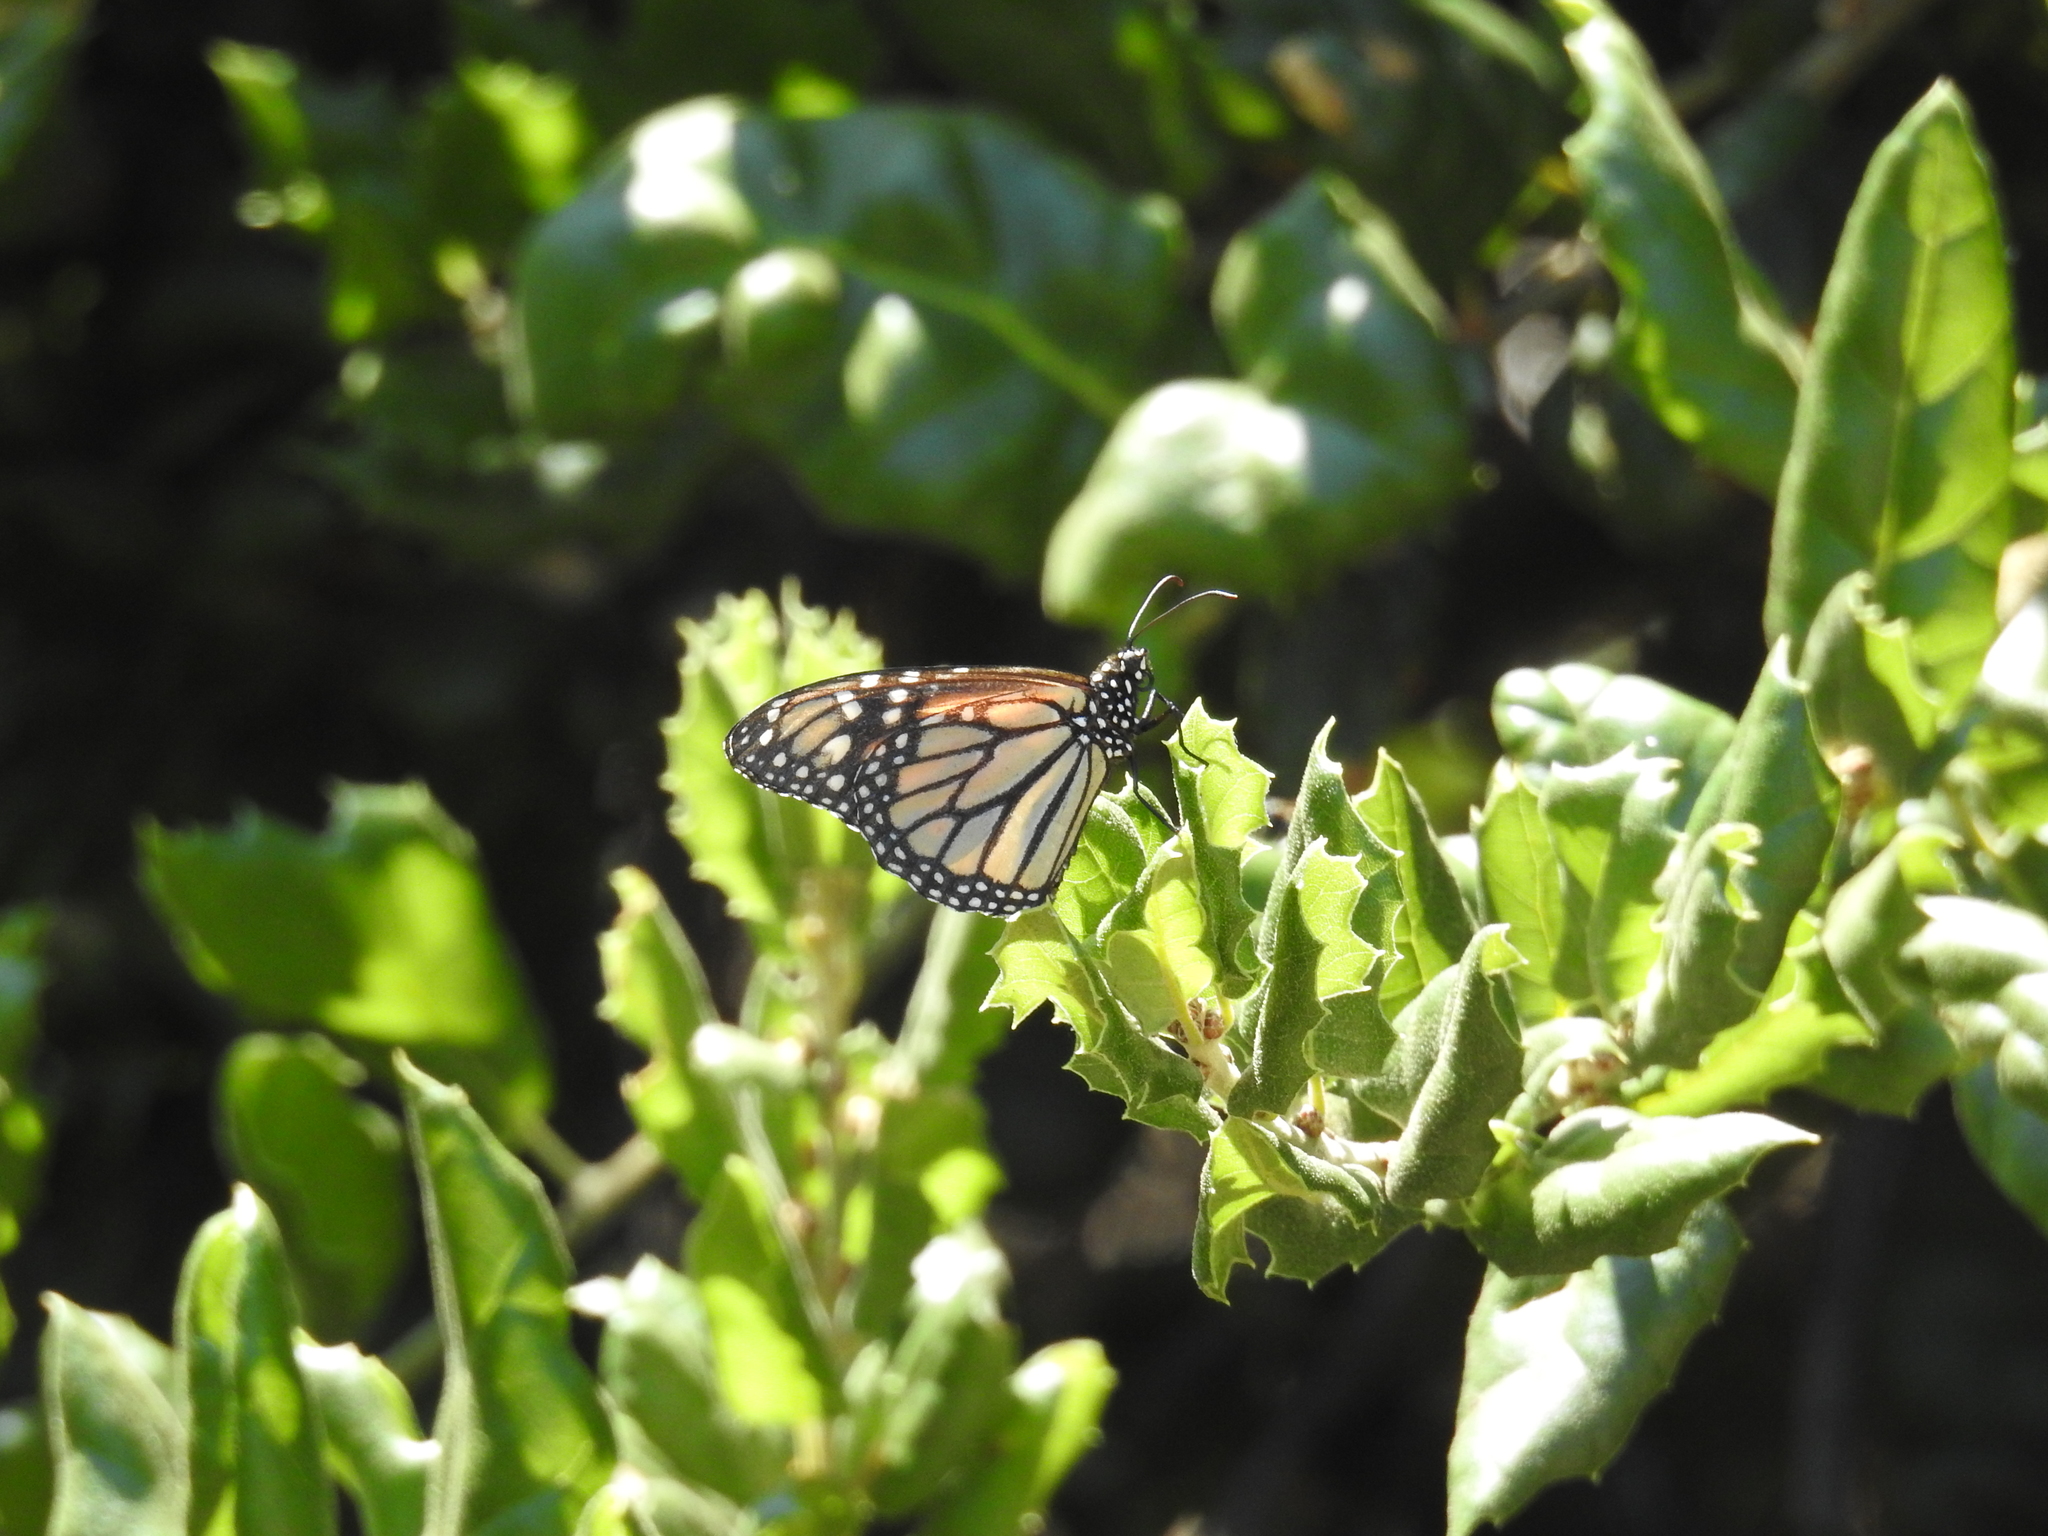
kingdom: Animalia
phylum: Arthropoda
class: Insecta
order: Lepidoptera
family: Nymphalidae
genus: Danaus
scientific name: Danaus plexippus
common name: Monarch
